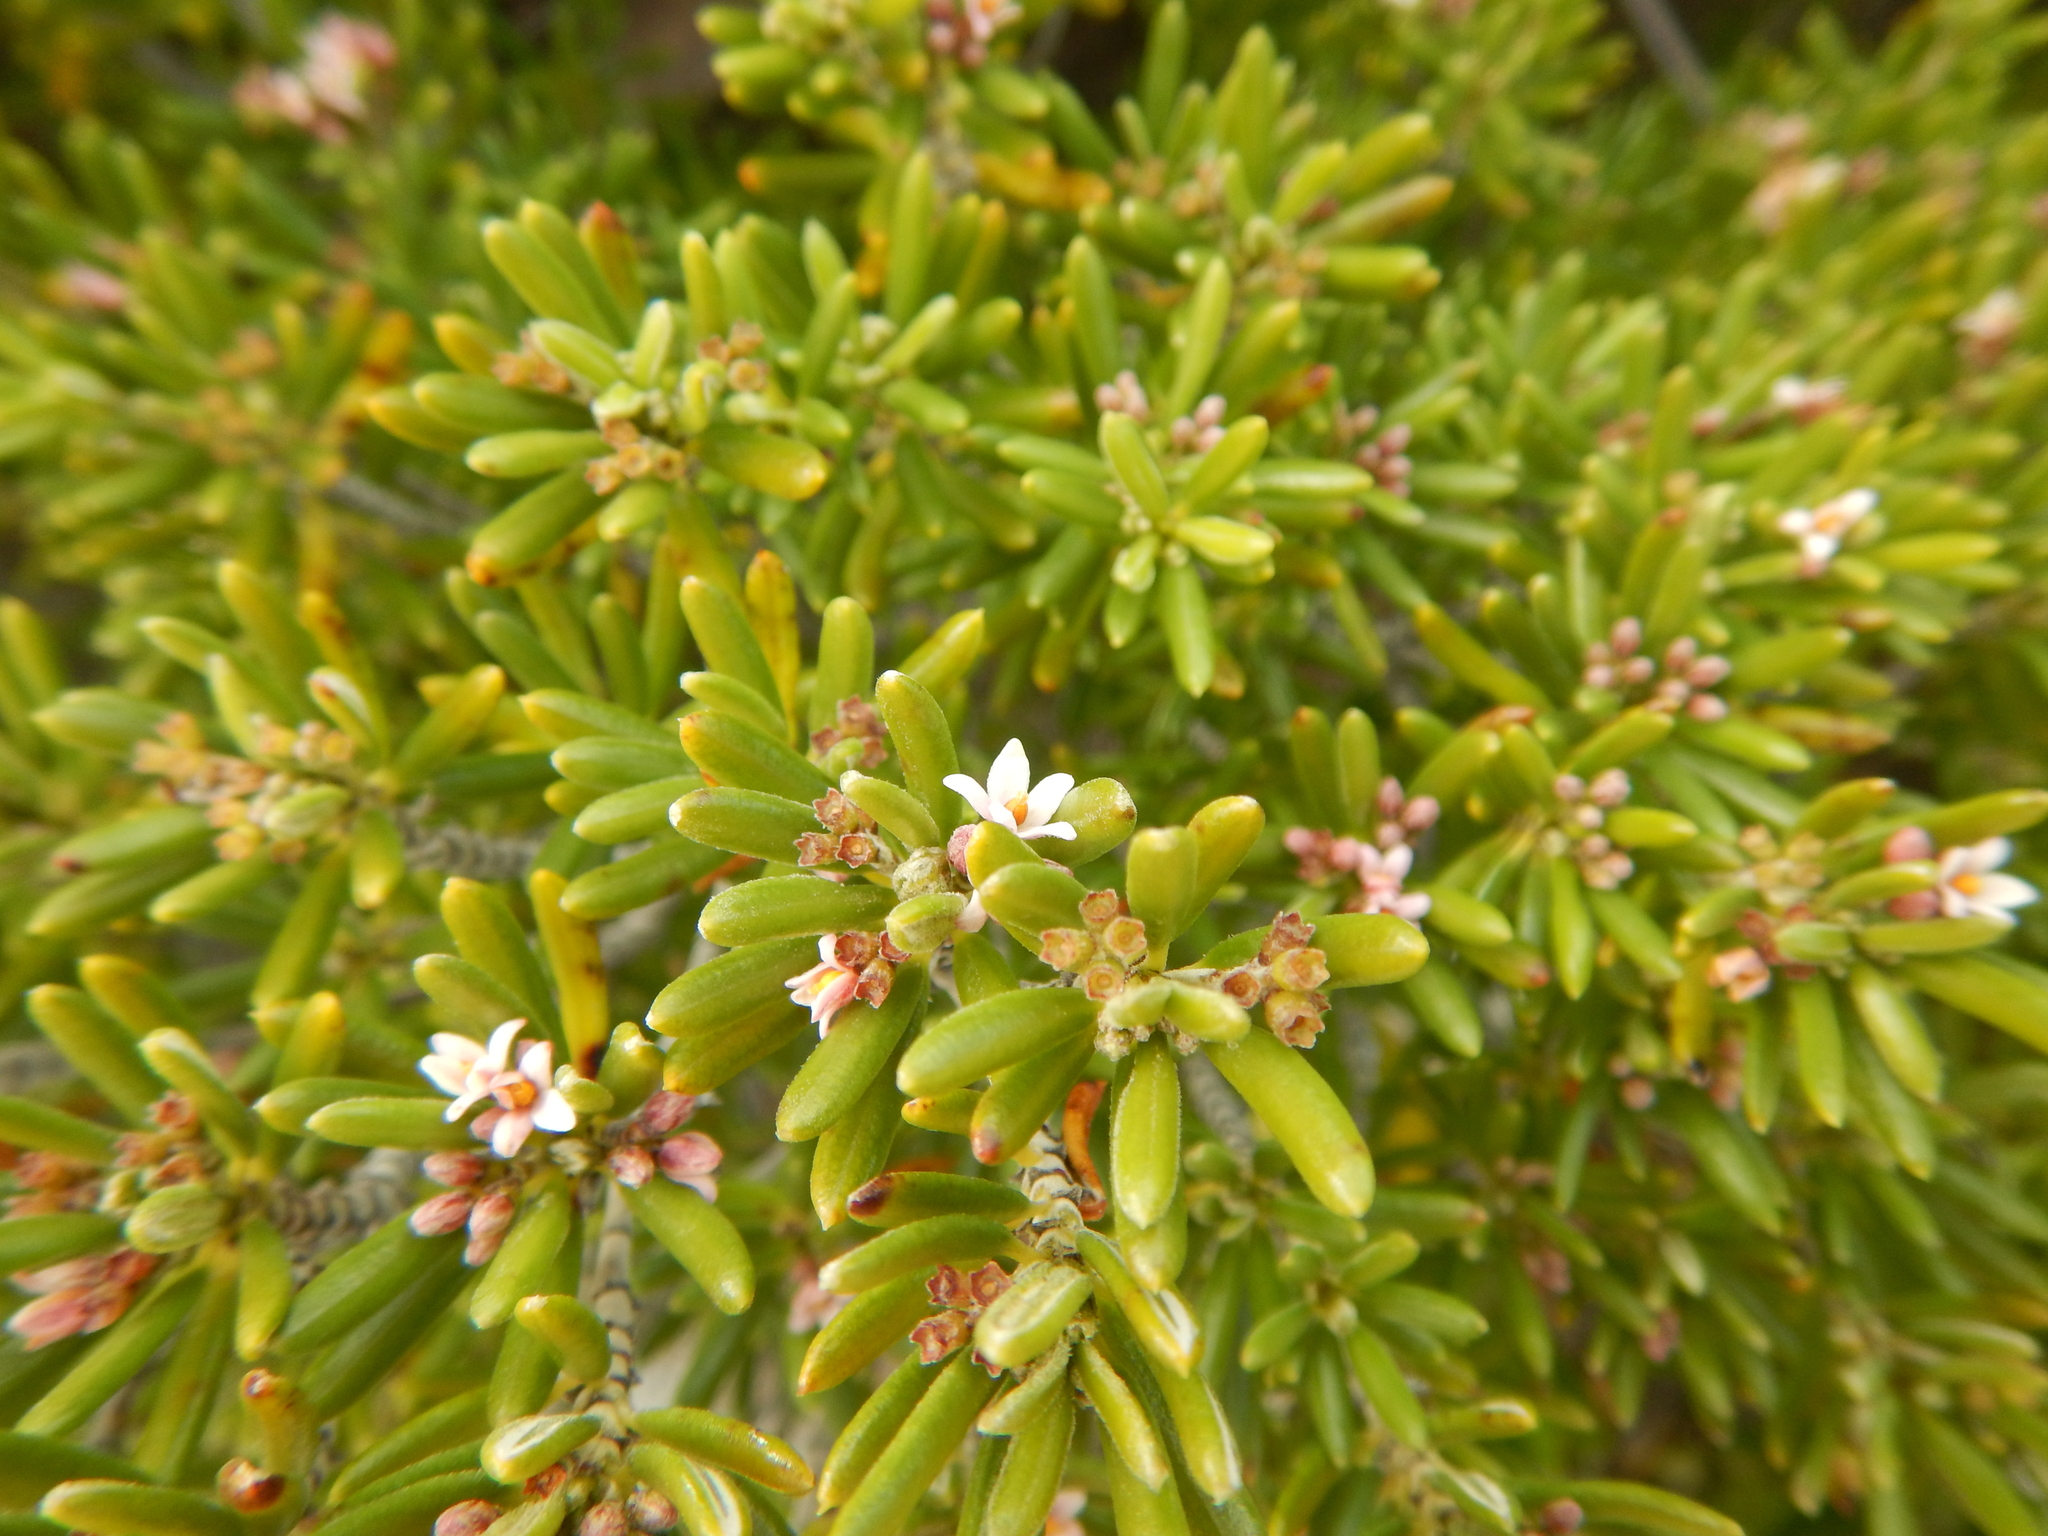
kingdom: Plantae
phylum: Tracheophyta
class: Magnoliopsida
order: Gentianales
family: Rubiaceae
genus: Strumpfia
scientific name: Strumpfia maritima
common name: Pride-of-big pine
